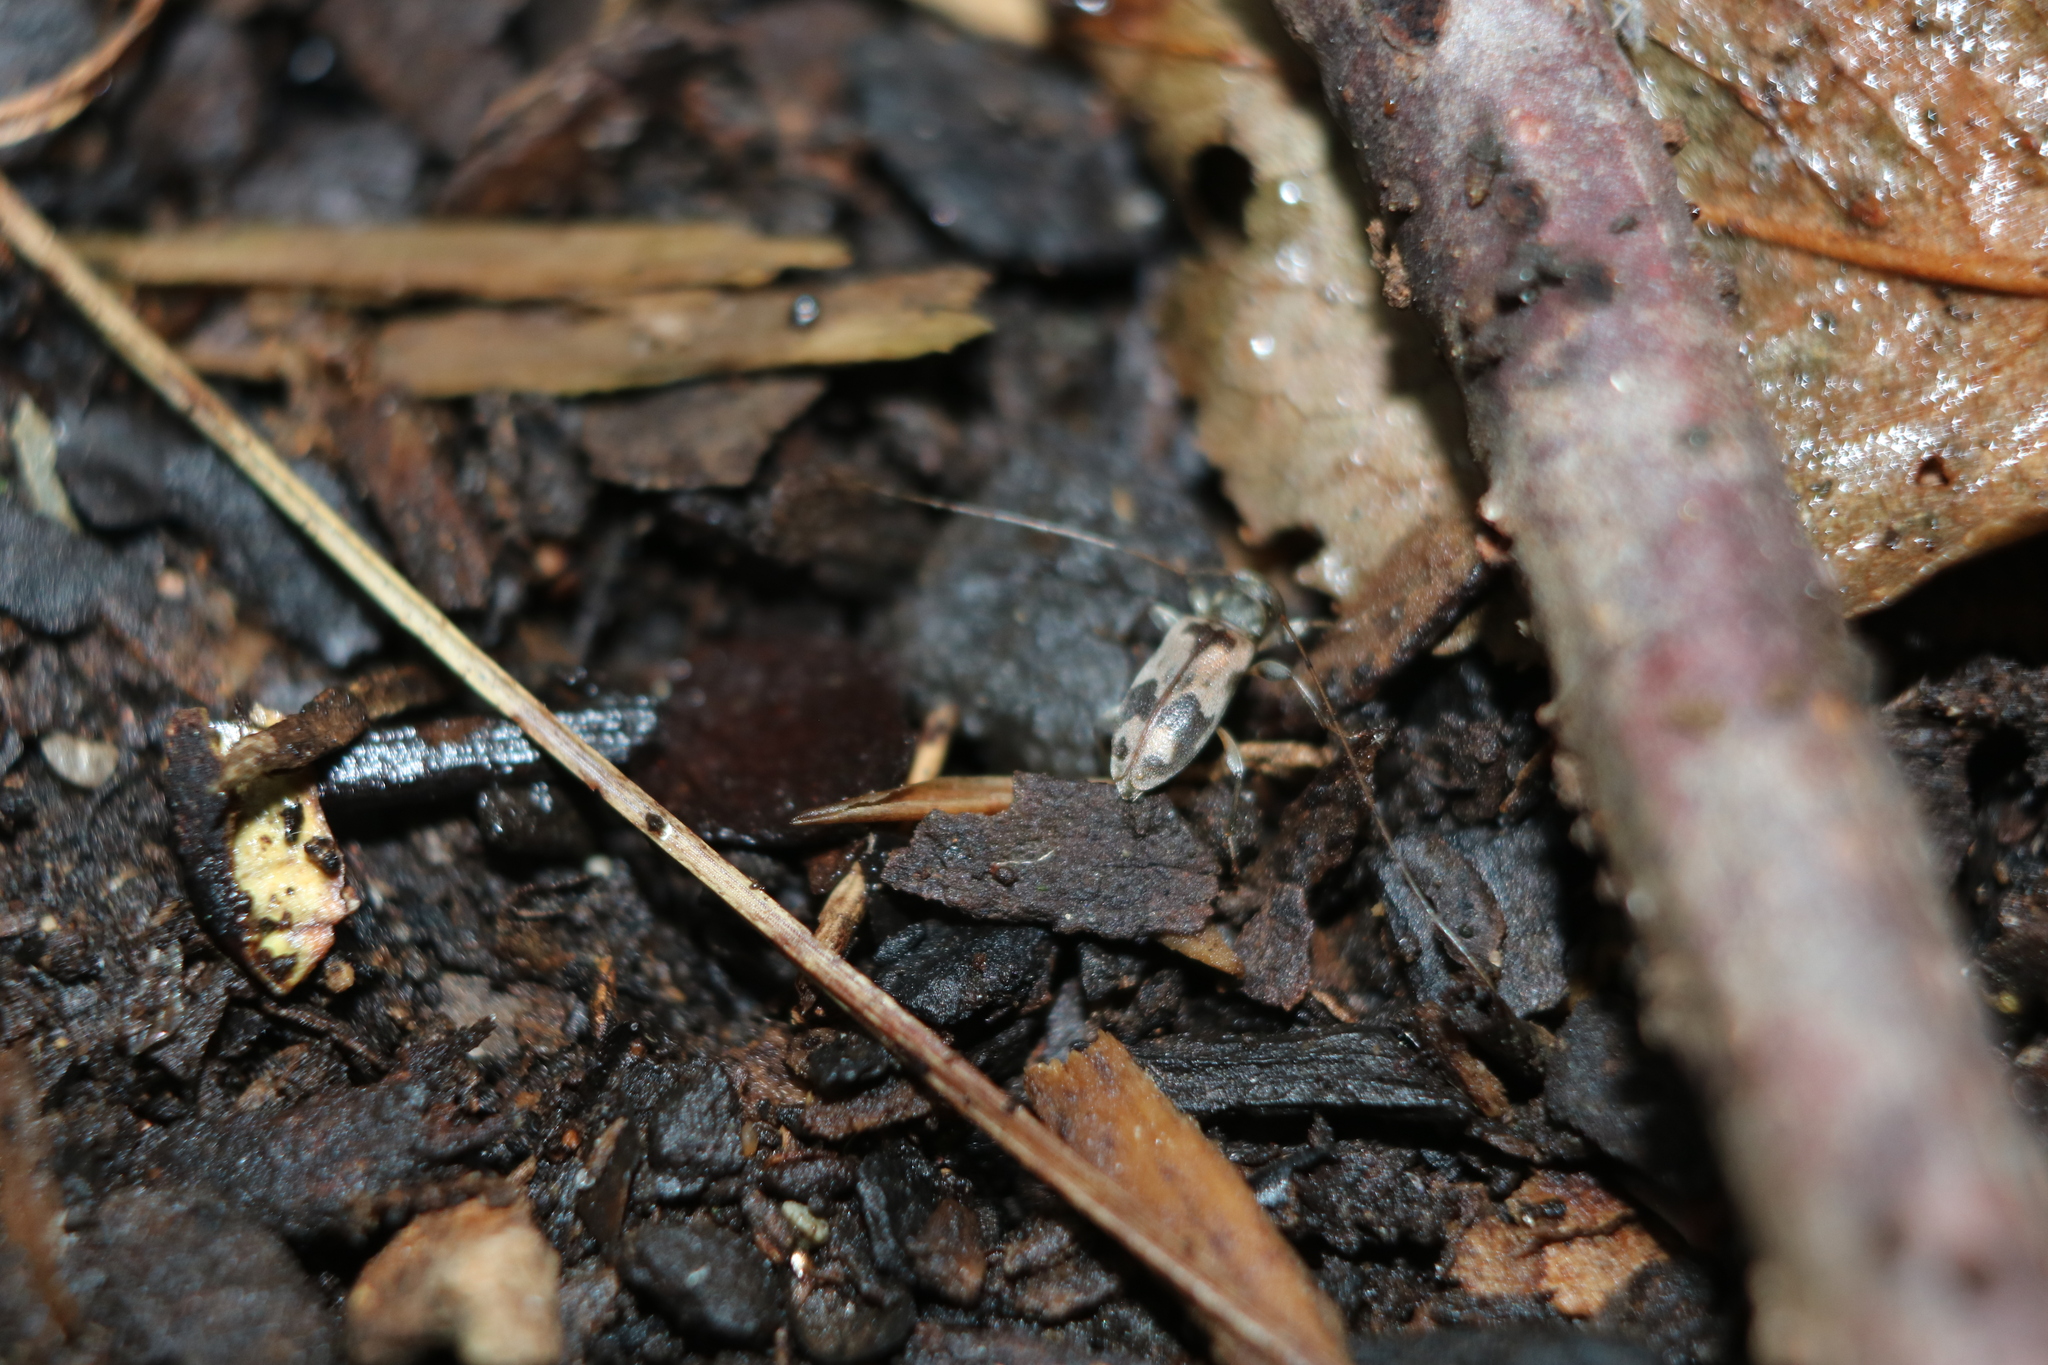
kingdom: Animalia
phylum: Arthropoda
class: Insecta
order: Coleoptera
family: Cerambycidae
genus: Urgleptes
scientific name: Urgleptes querci
